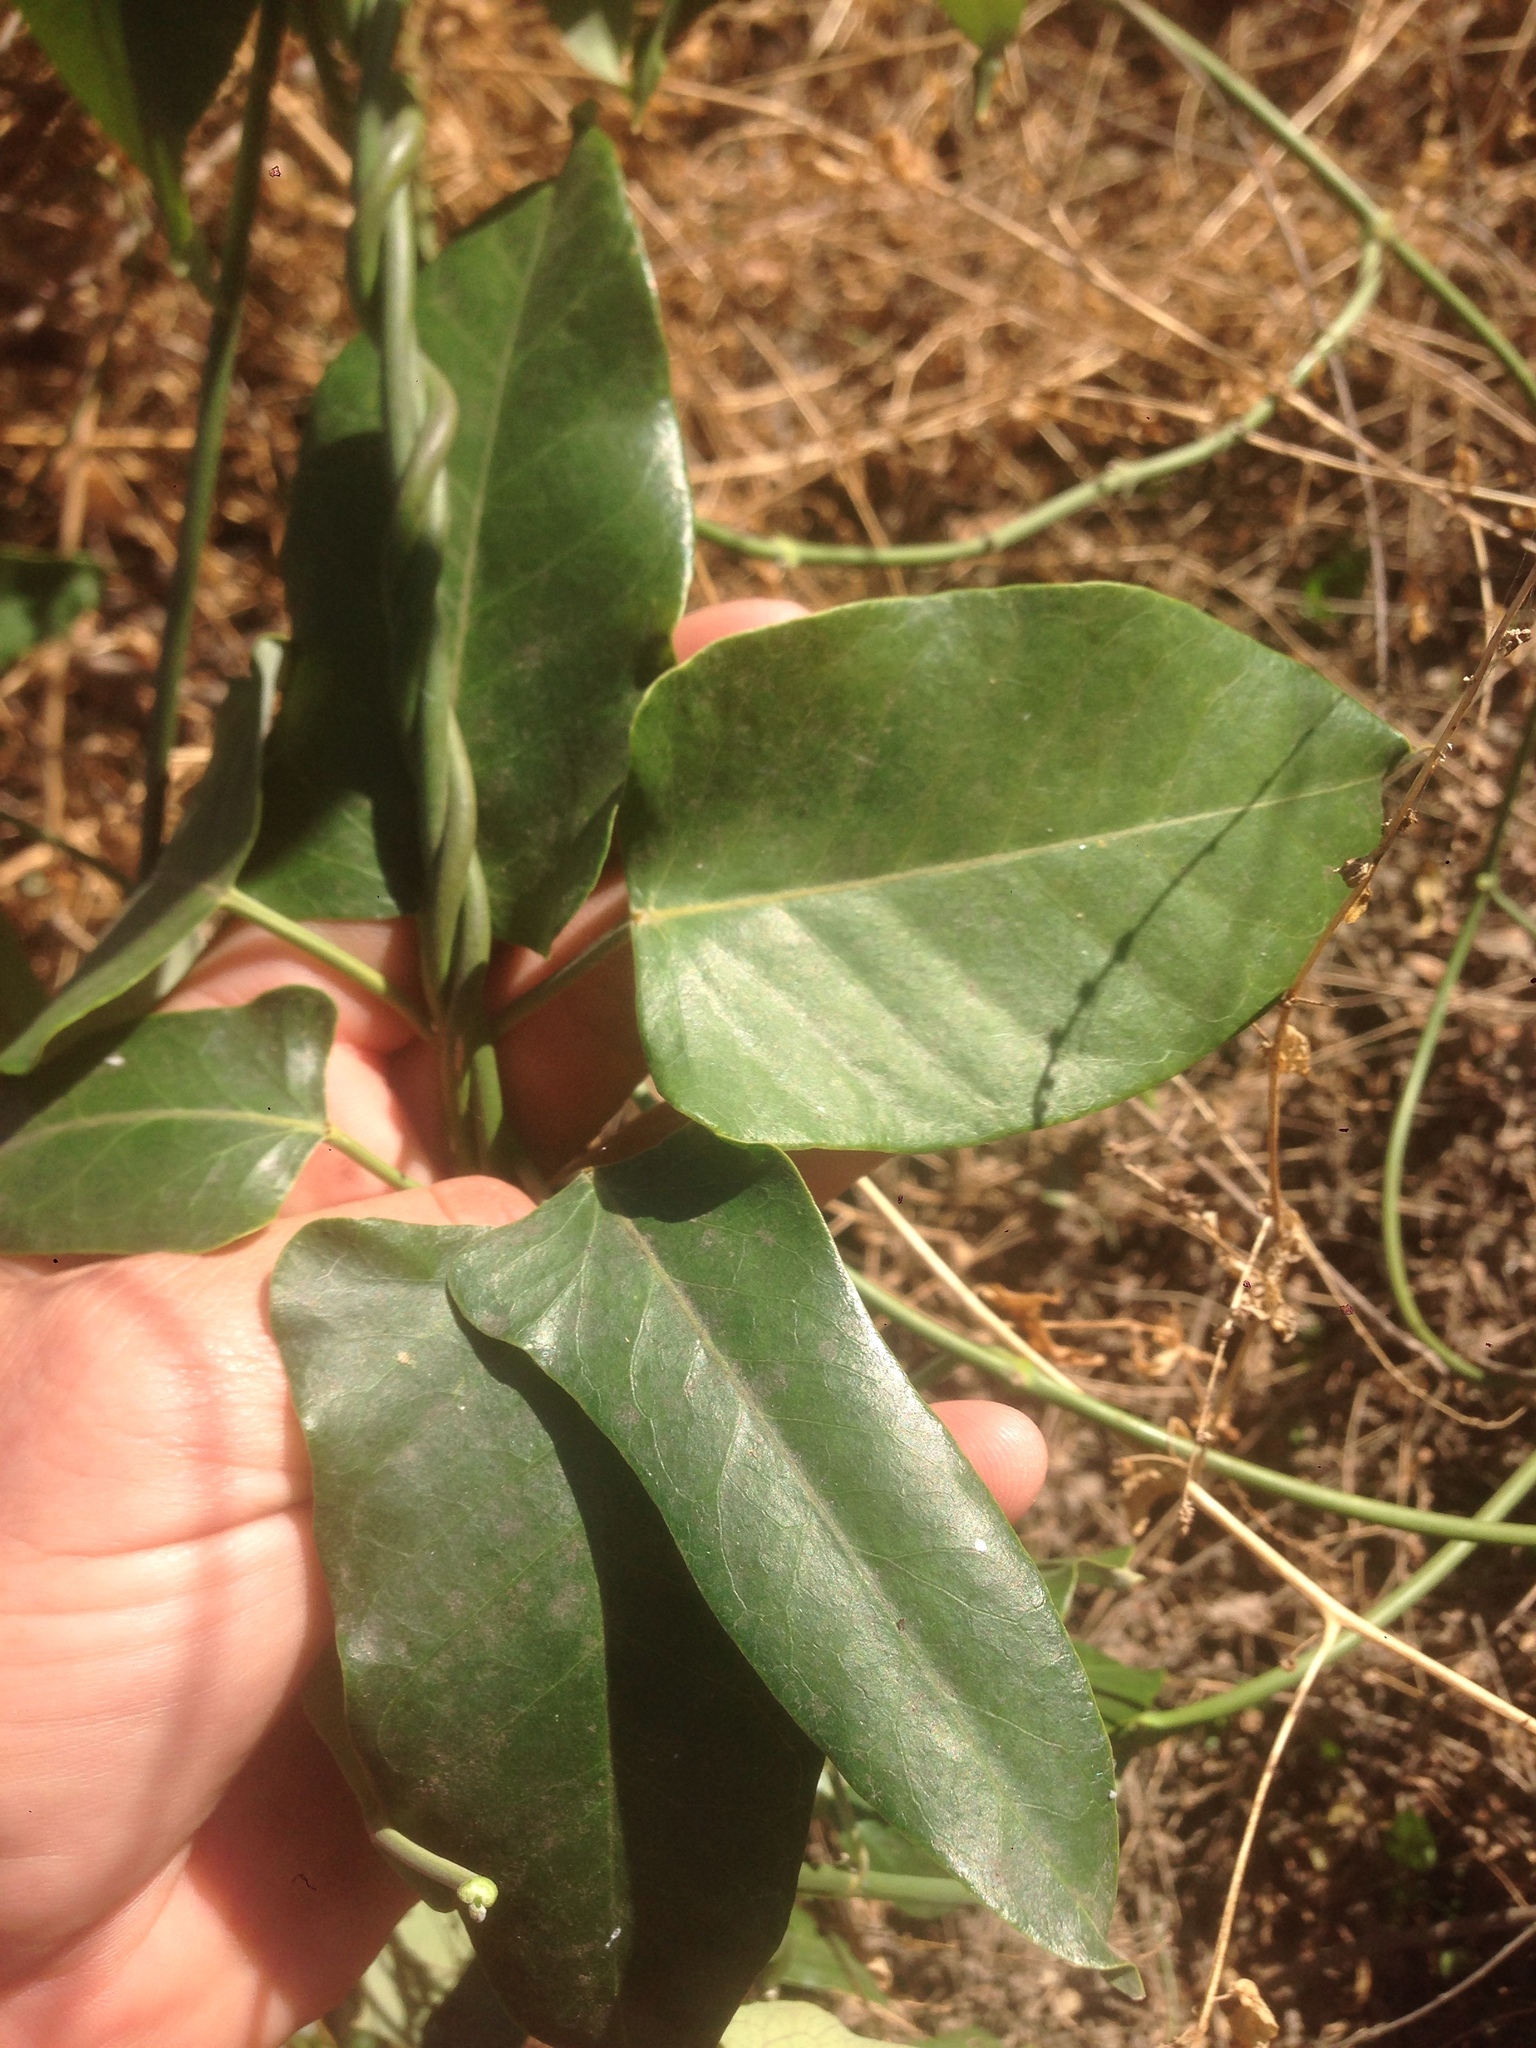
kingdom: Plantae
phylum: Tracheophyta
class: Magnoliopsida
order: Gentianales
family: Apocynaceae
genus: Araujia
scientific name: Araujia sericifera
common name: White bladderflower
